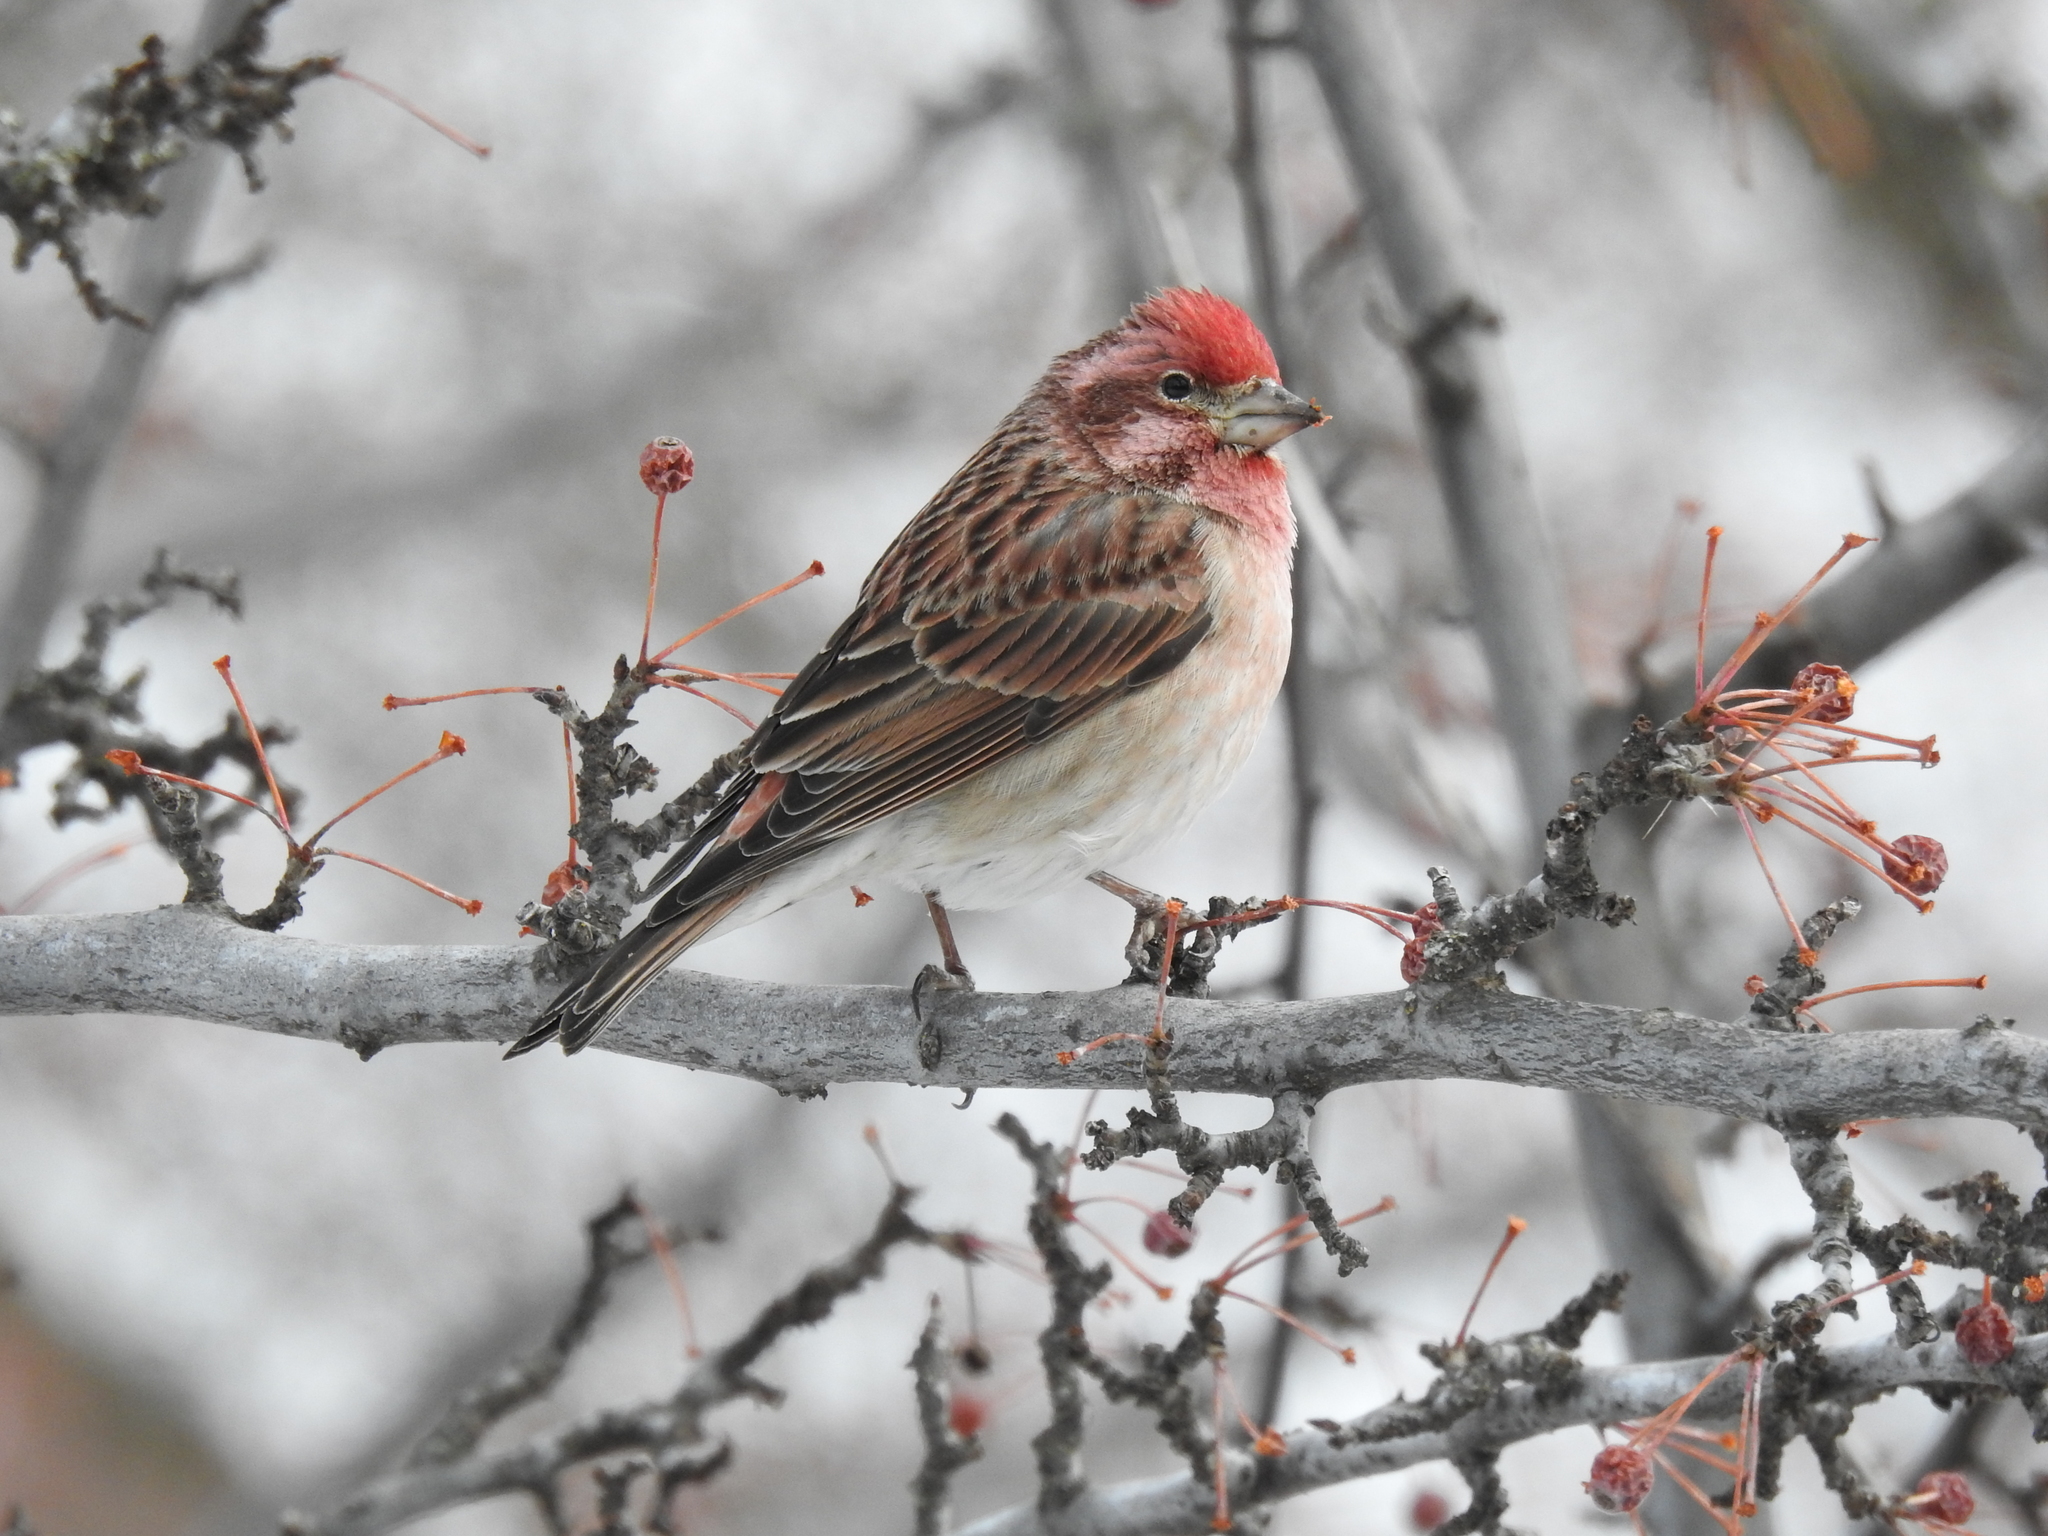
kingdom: Animalia
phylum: Chordata
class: Aves
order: Passeriformes
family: Fringillidae
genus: Haemorhous
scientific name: Haemorhous cassinii
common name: Cassin's finch
